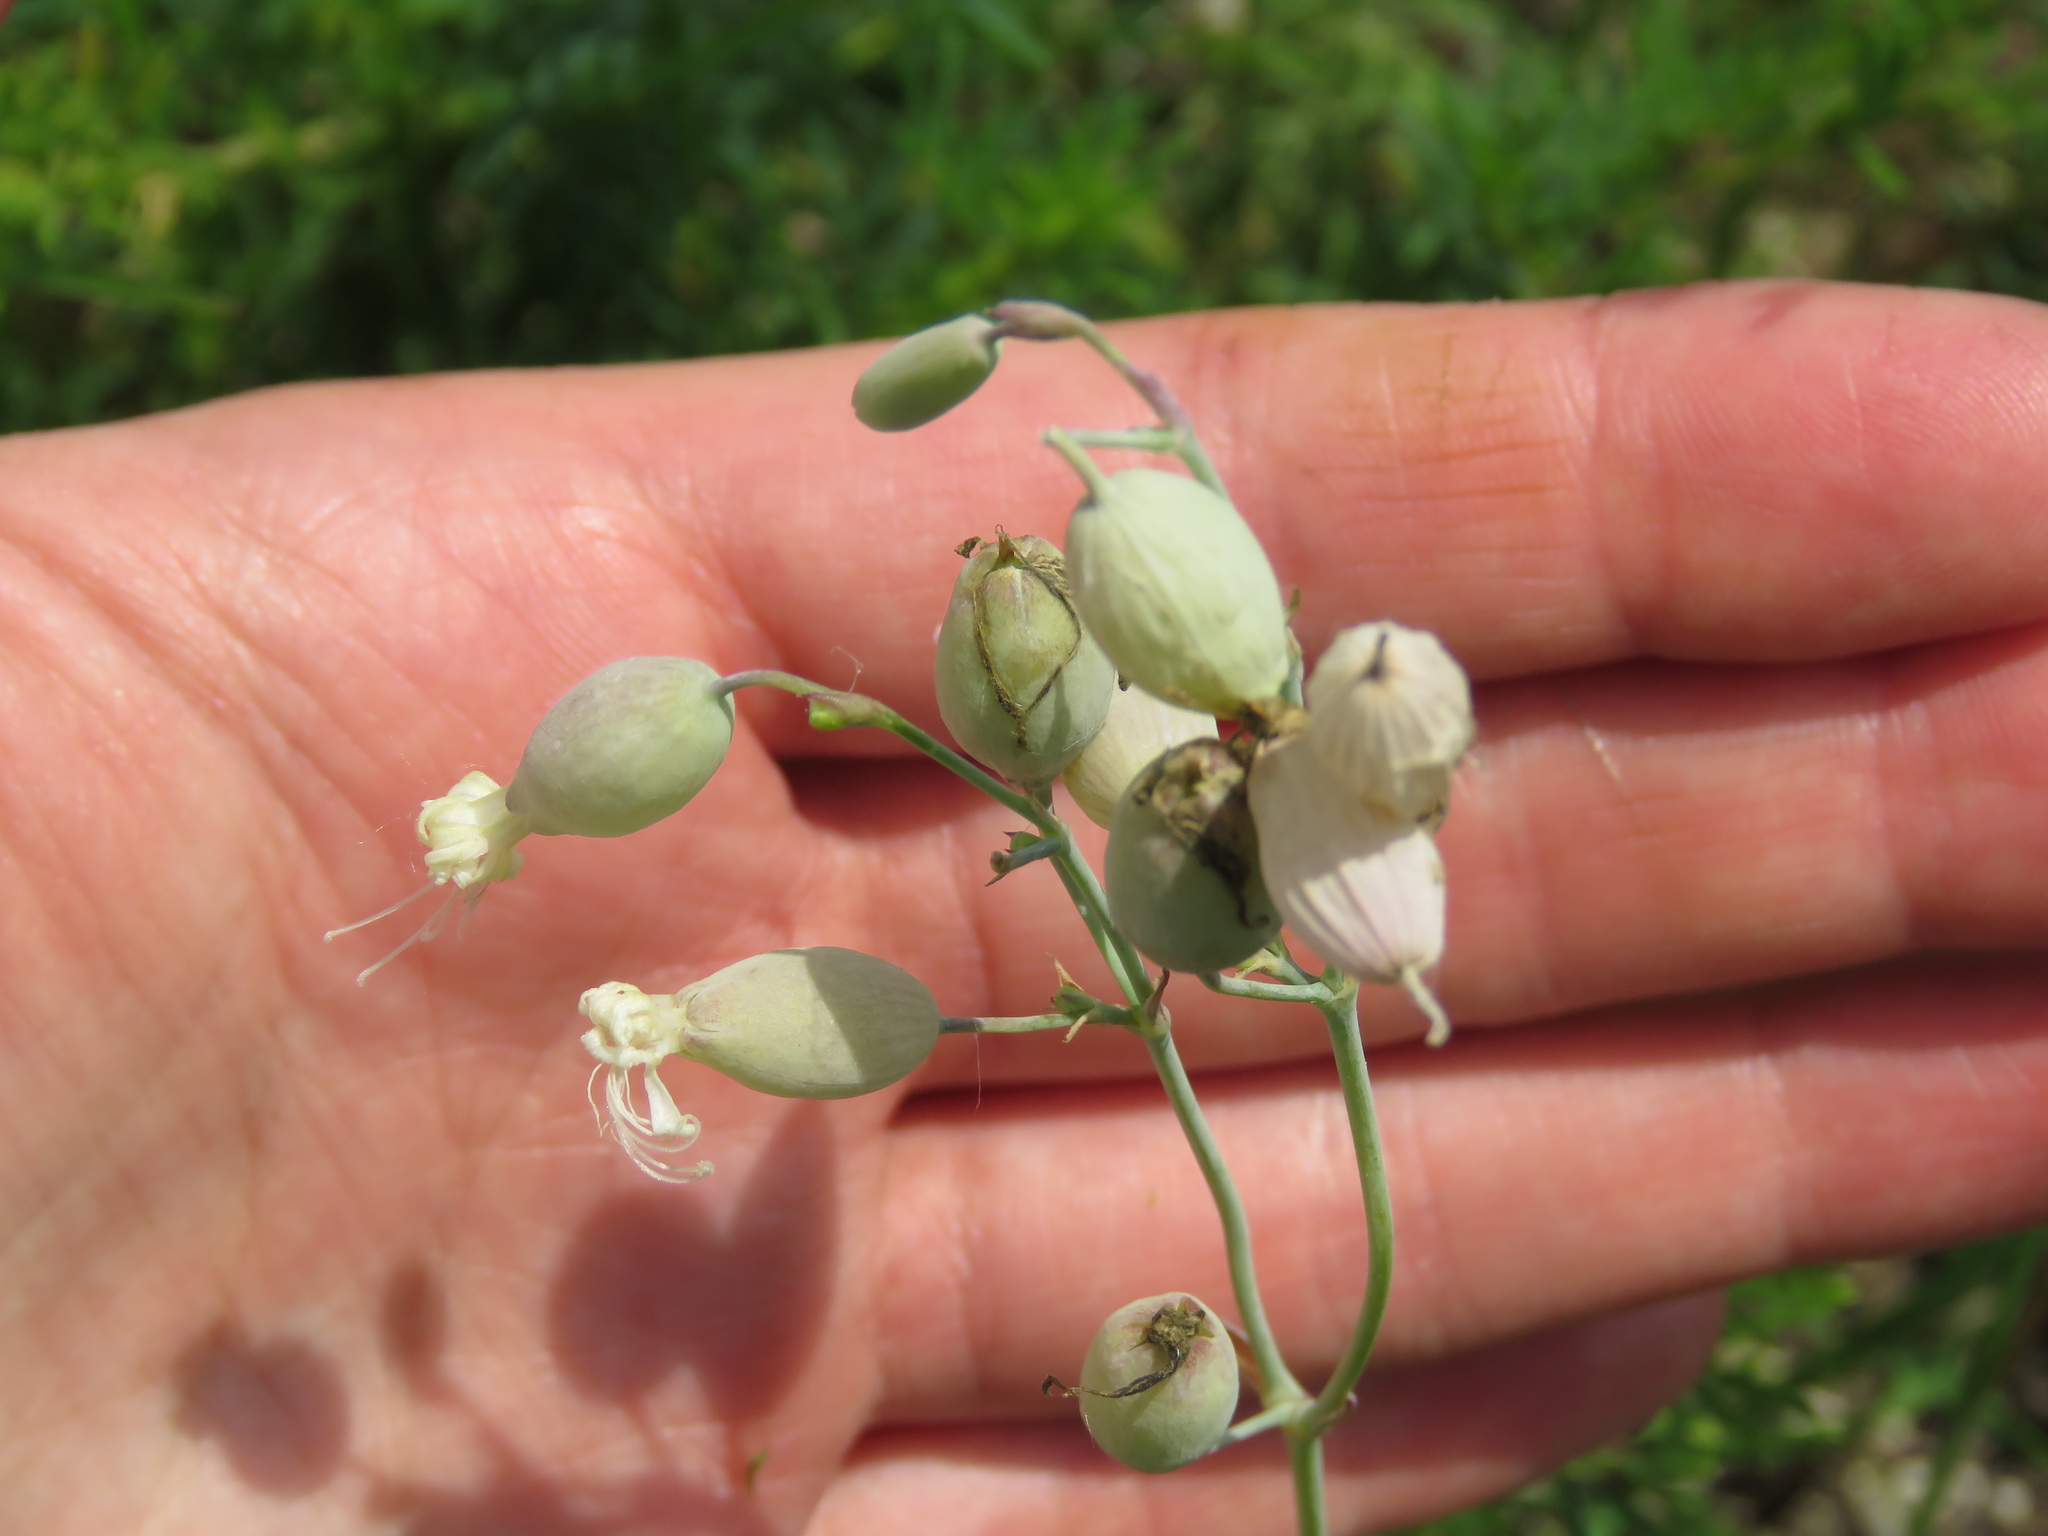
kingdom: Plantae
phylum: Tracheophyta
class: Magnoliopsida
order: Caryophyllales
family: Caryophyllaceae
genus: Silene
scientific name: Silene vulgaris
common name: Bladder campion
